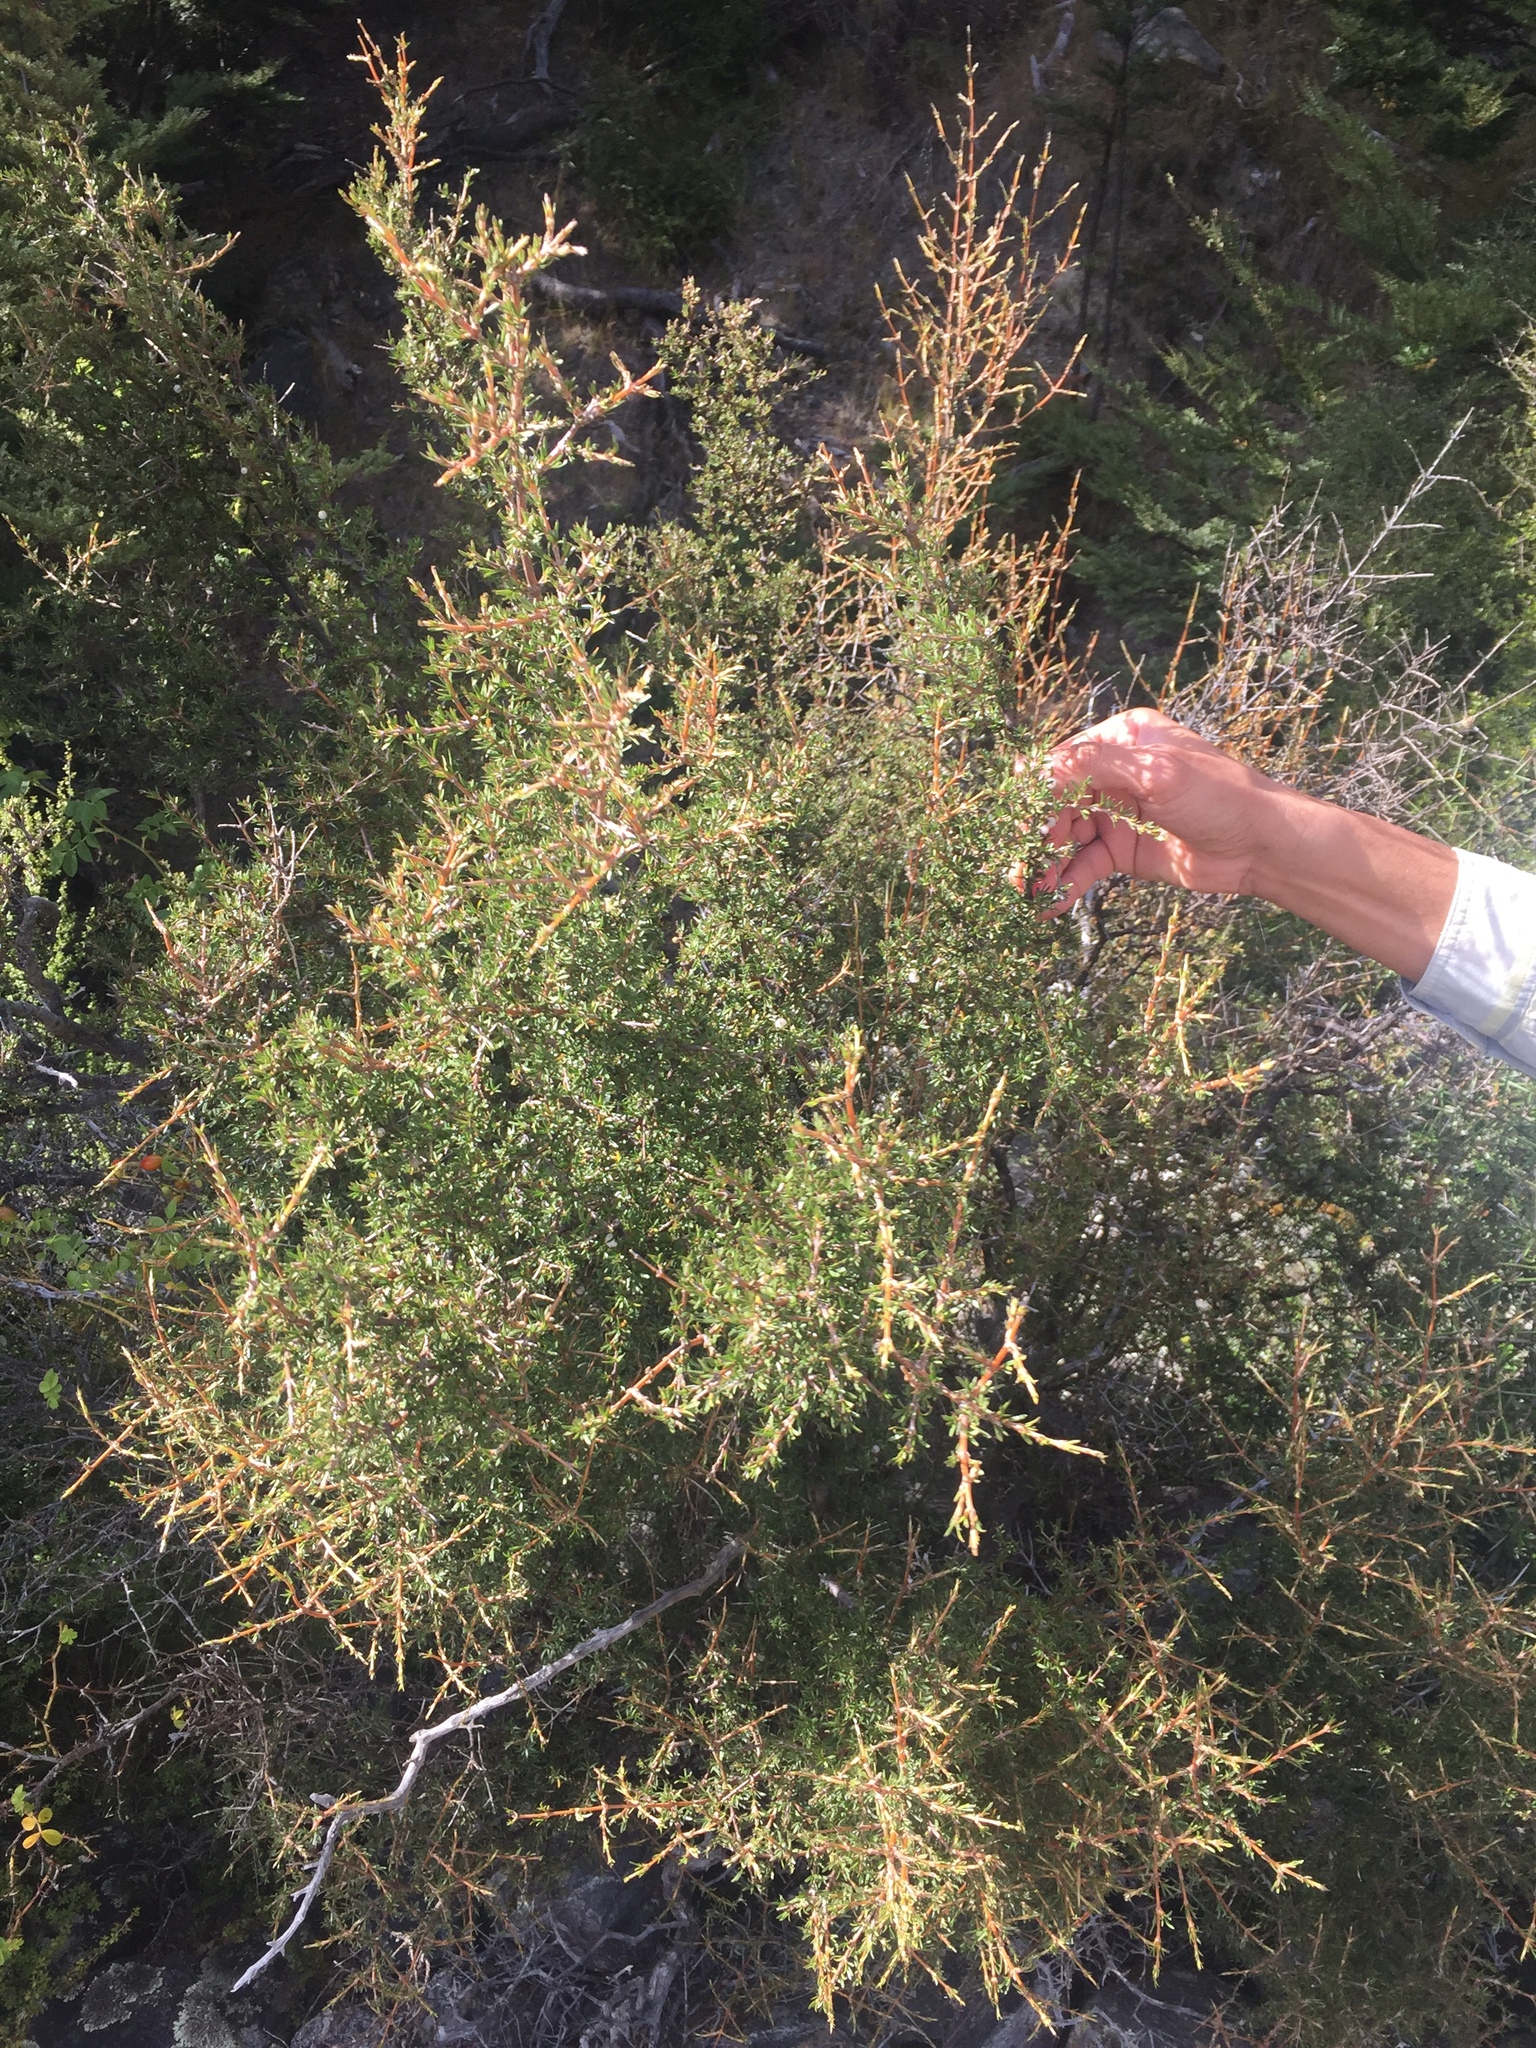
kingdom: Plantae
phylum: Tracheophyta
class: Magnoliopsida
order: Gentianales
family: Rubiaceae
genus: Coprosma
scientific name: Coprosma rugosa
